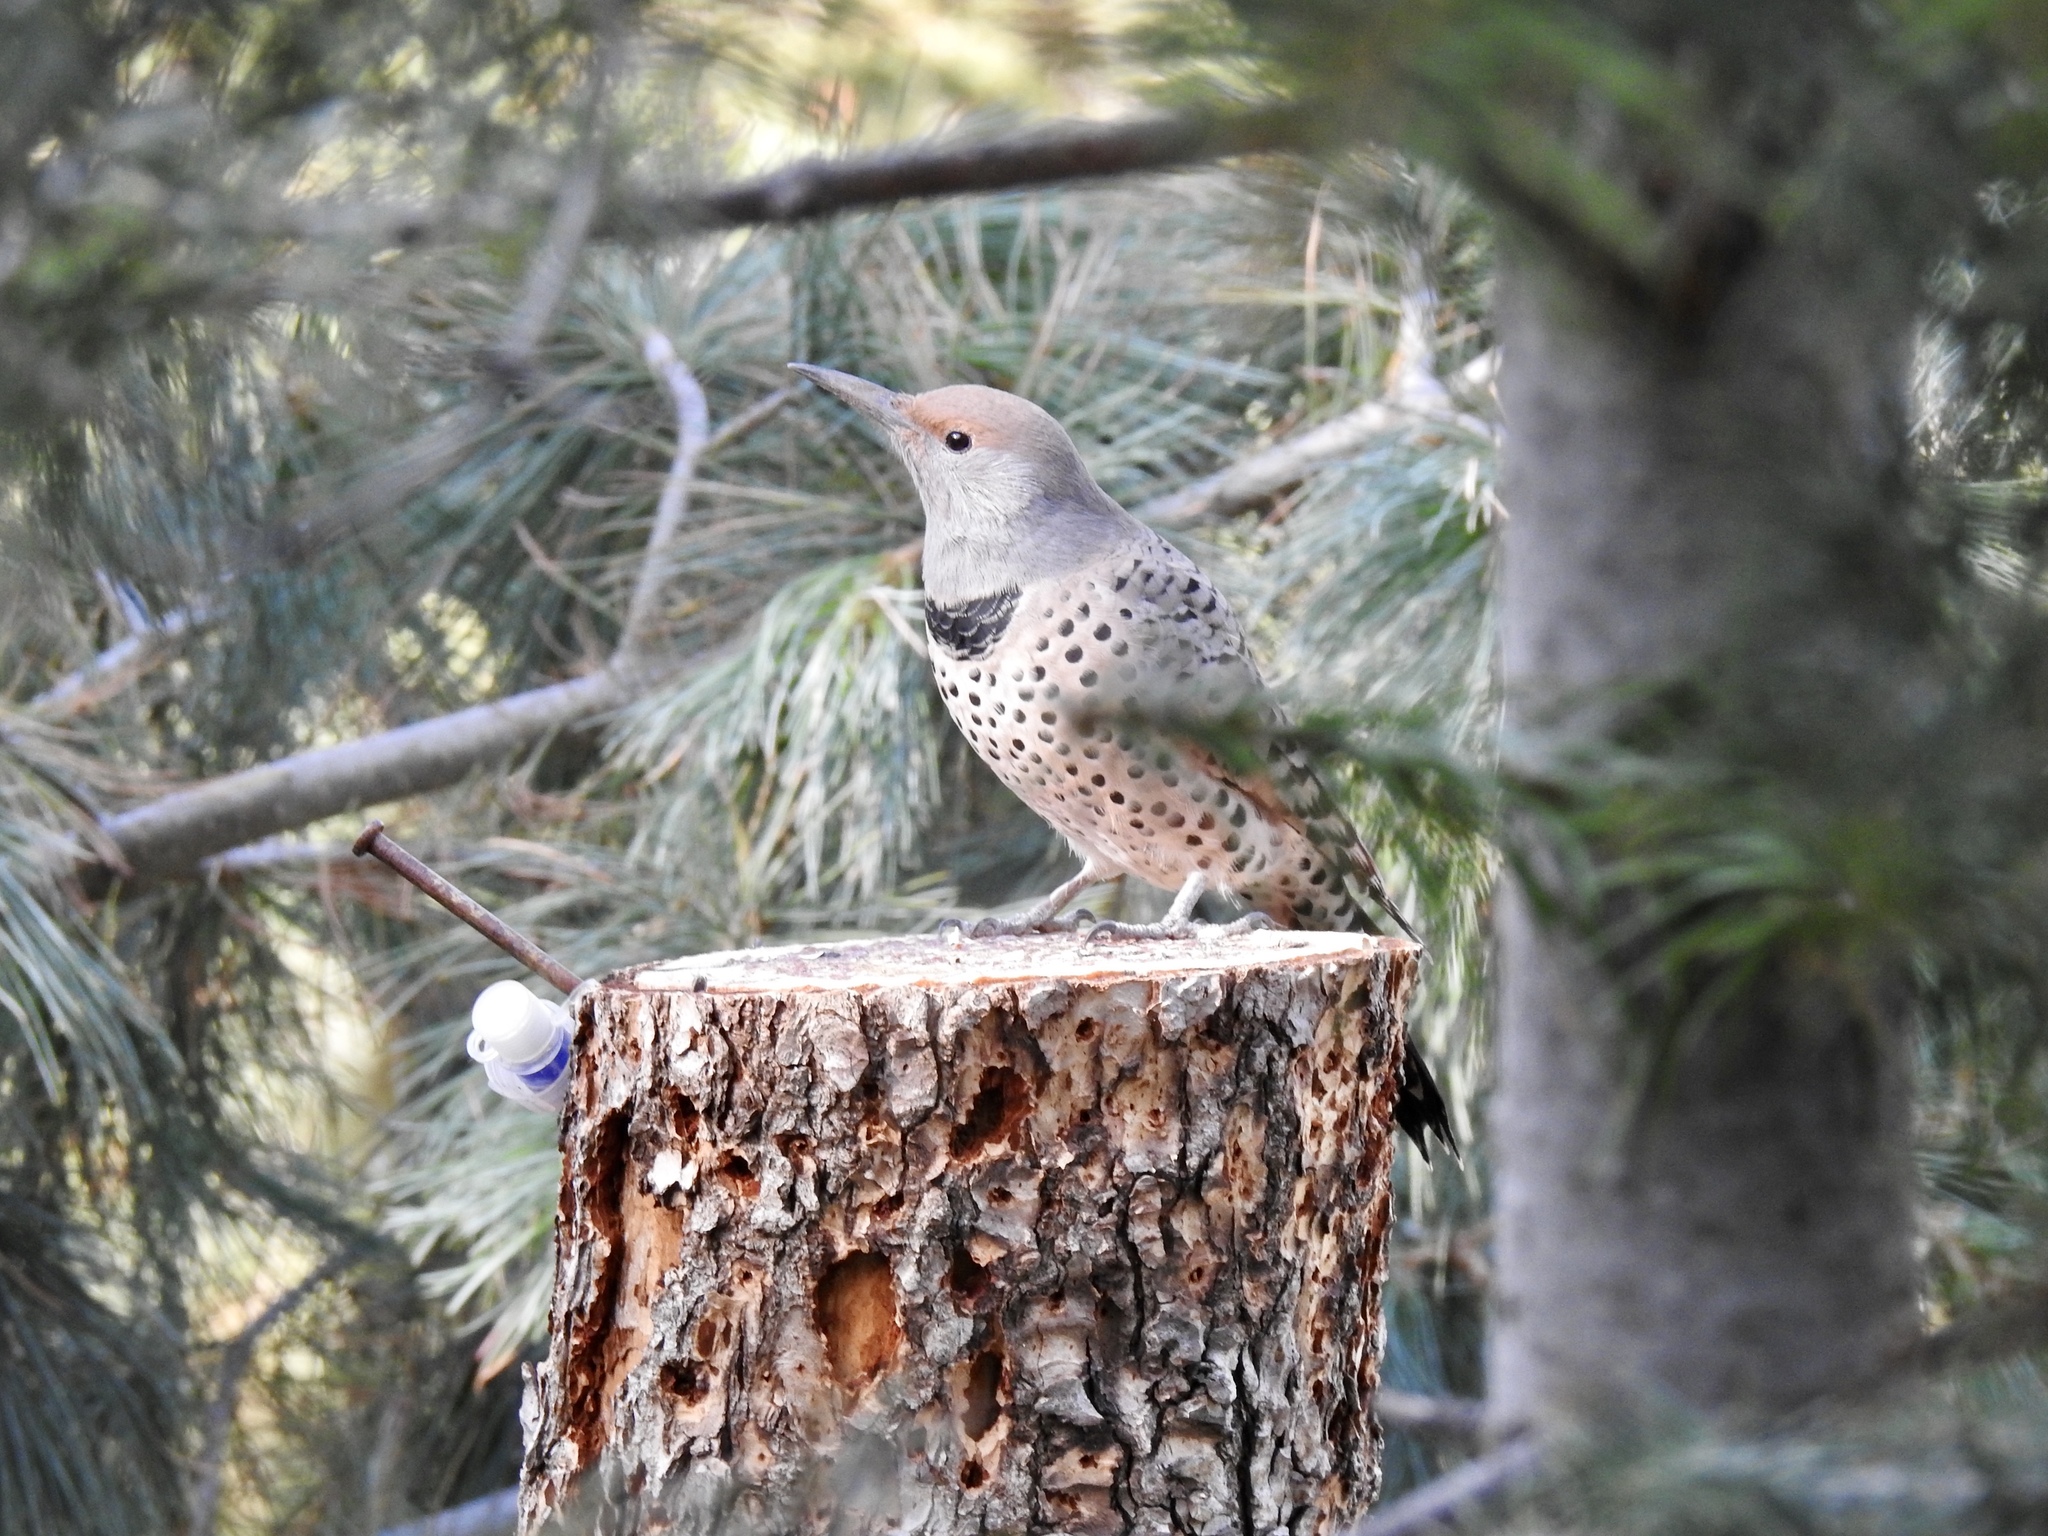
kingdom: Animalia
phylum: Chordata
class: Aves
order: Piciformes
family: Picidae
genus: Colaptes
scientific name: Colaptes auratus
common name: Northern flicker
